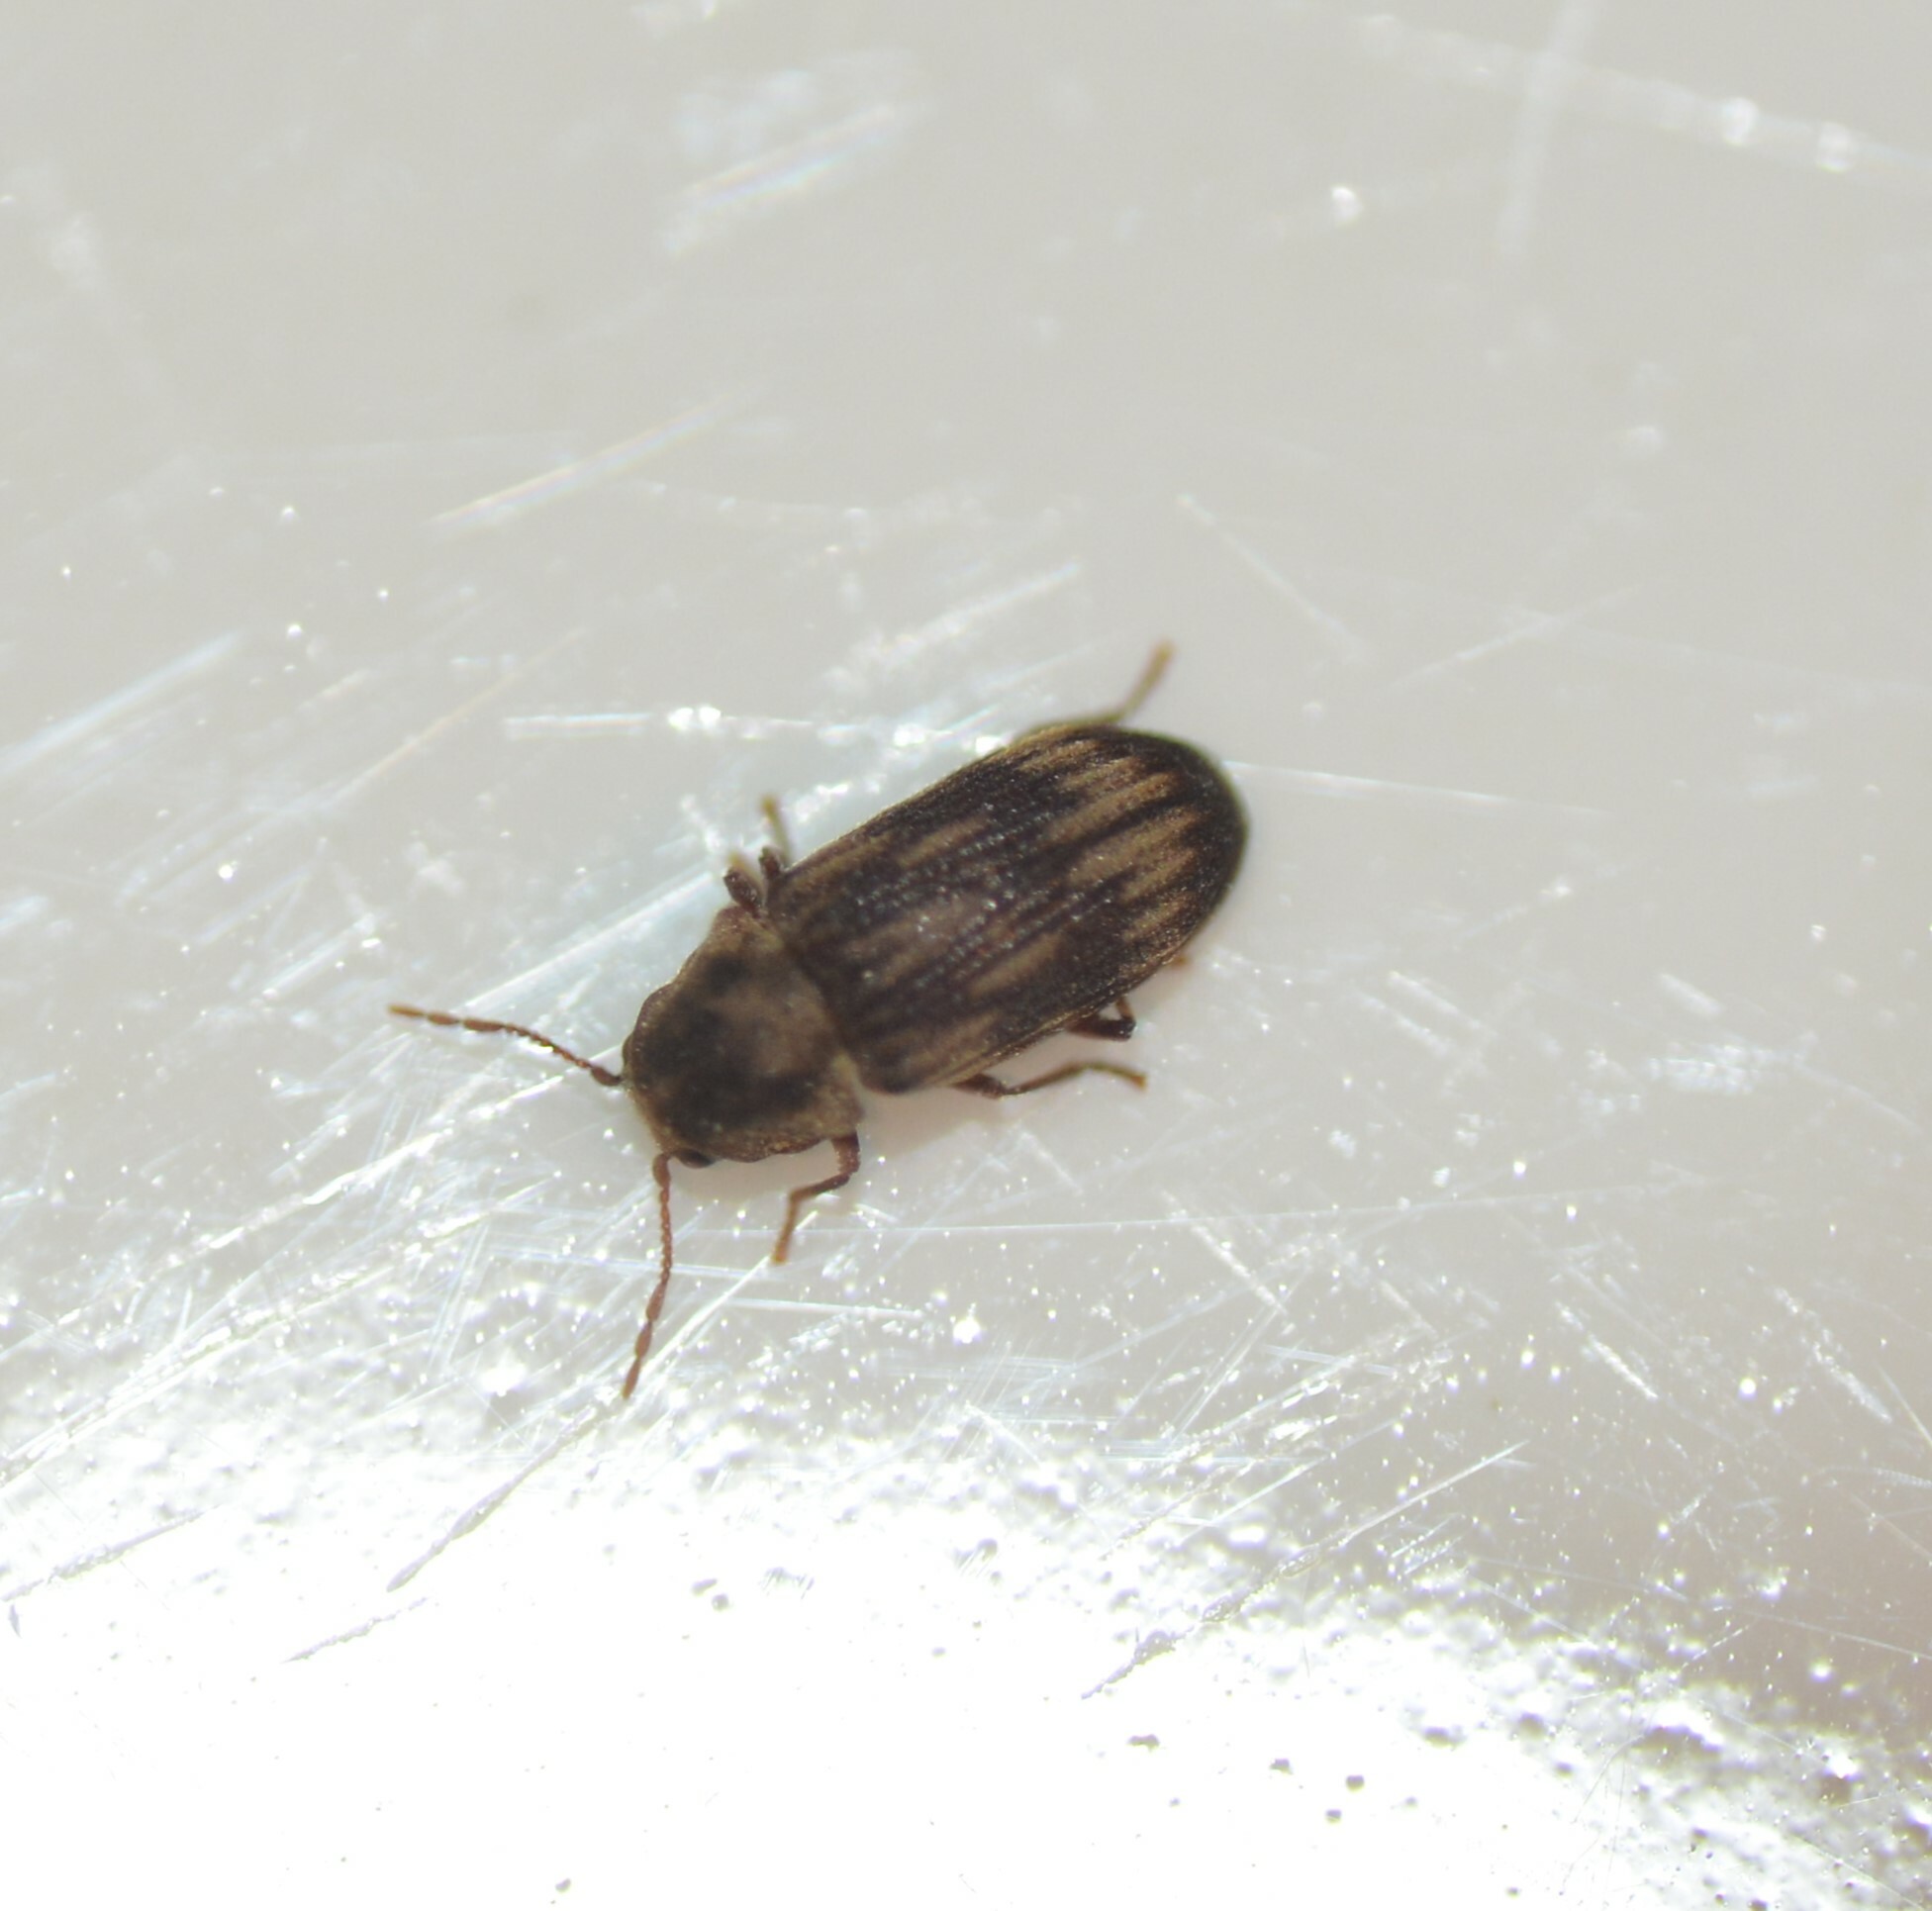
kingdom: Animalia
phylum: Arthropoda
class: Insecta
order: Coleoptera
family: Anobiidae
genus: Hadrobregmus
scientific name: Hadrobregmus notatus
